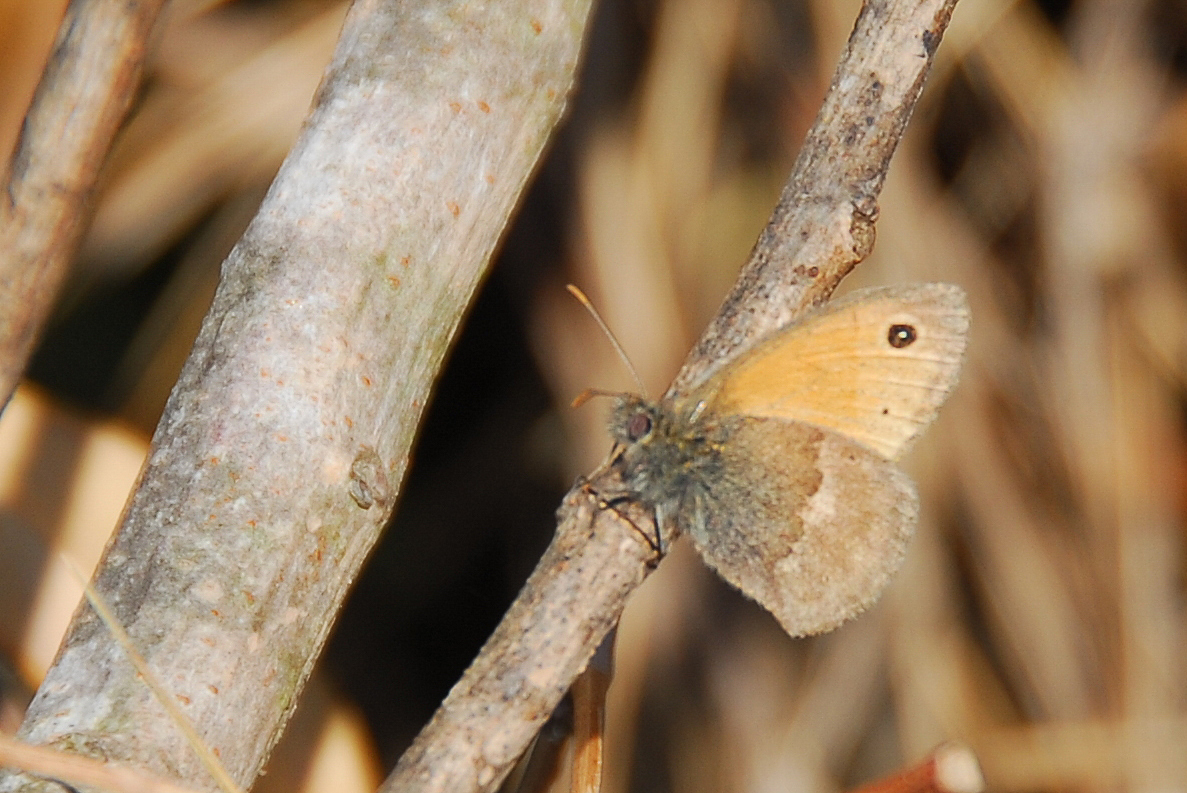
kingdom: Animalia
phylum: Arthropoda
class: Insecta
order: Lepidoptera
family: Nymphalidae
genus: Coenonympha
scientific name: Coenonympha pamphilus
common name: Small heath
